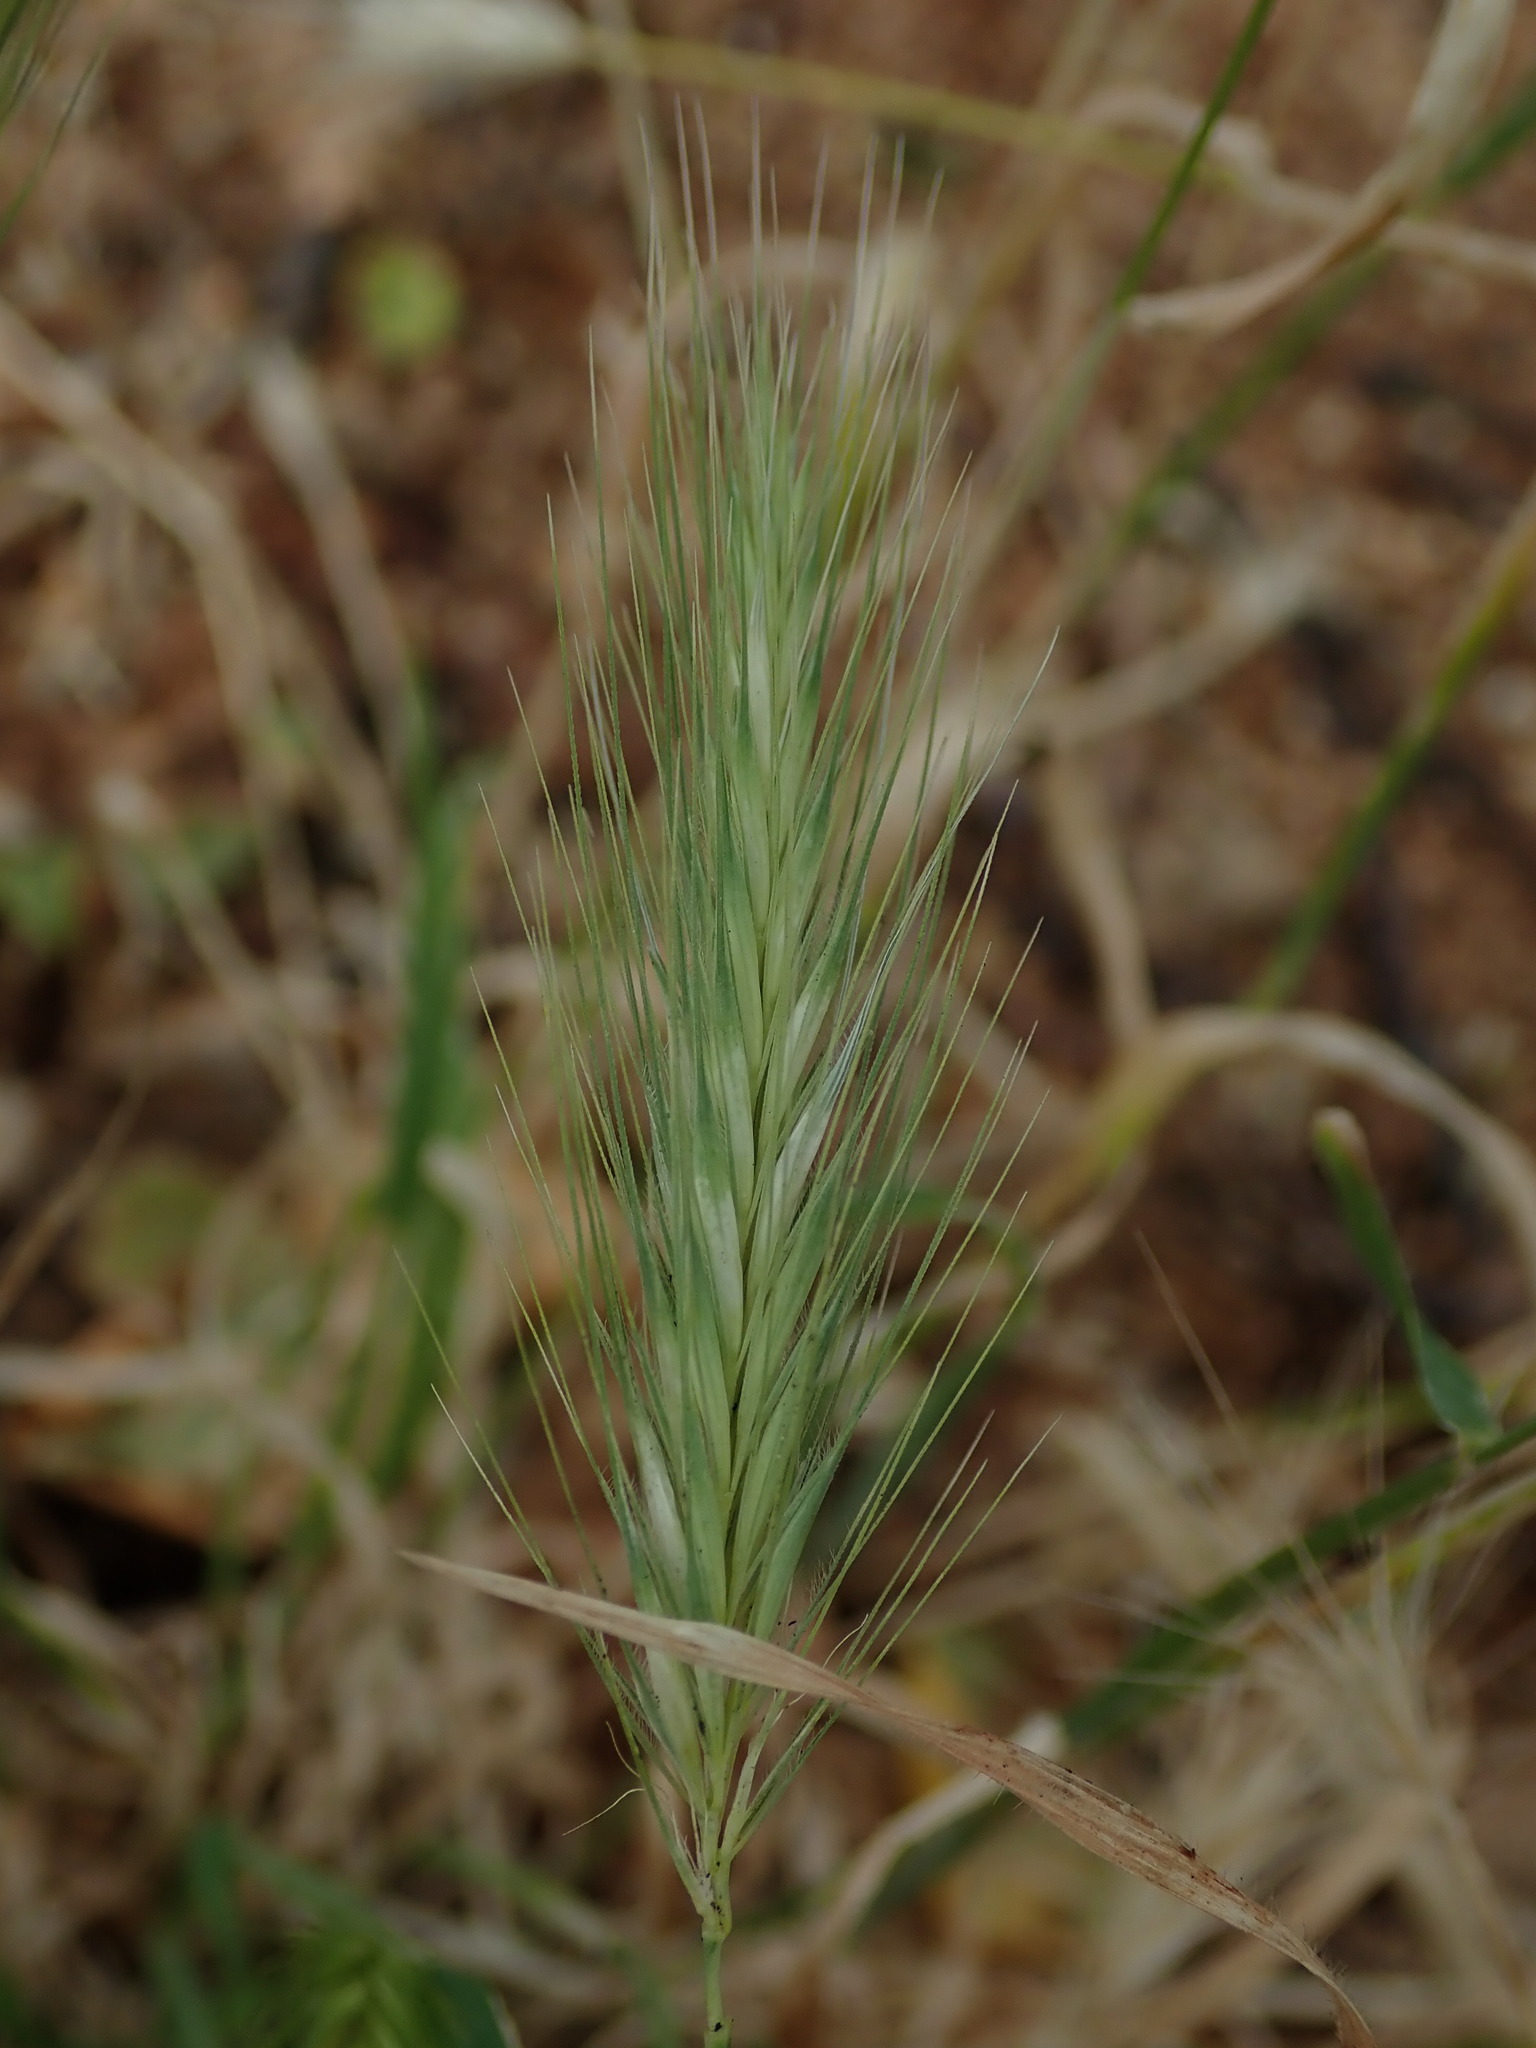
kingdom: Plantae
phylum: Tracheophyta
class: Liliopsida
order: Poales
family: Poaceae
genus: Hordeum
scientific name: Hordeum murinum
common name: Wall barley
